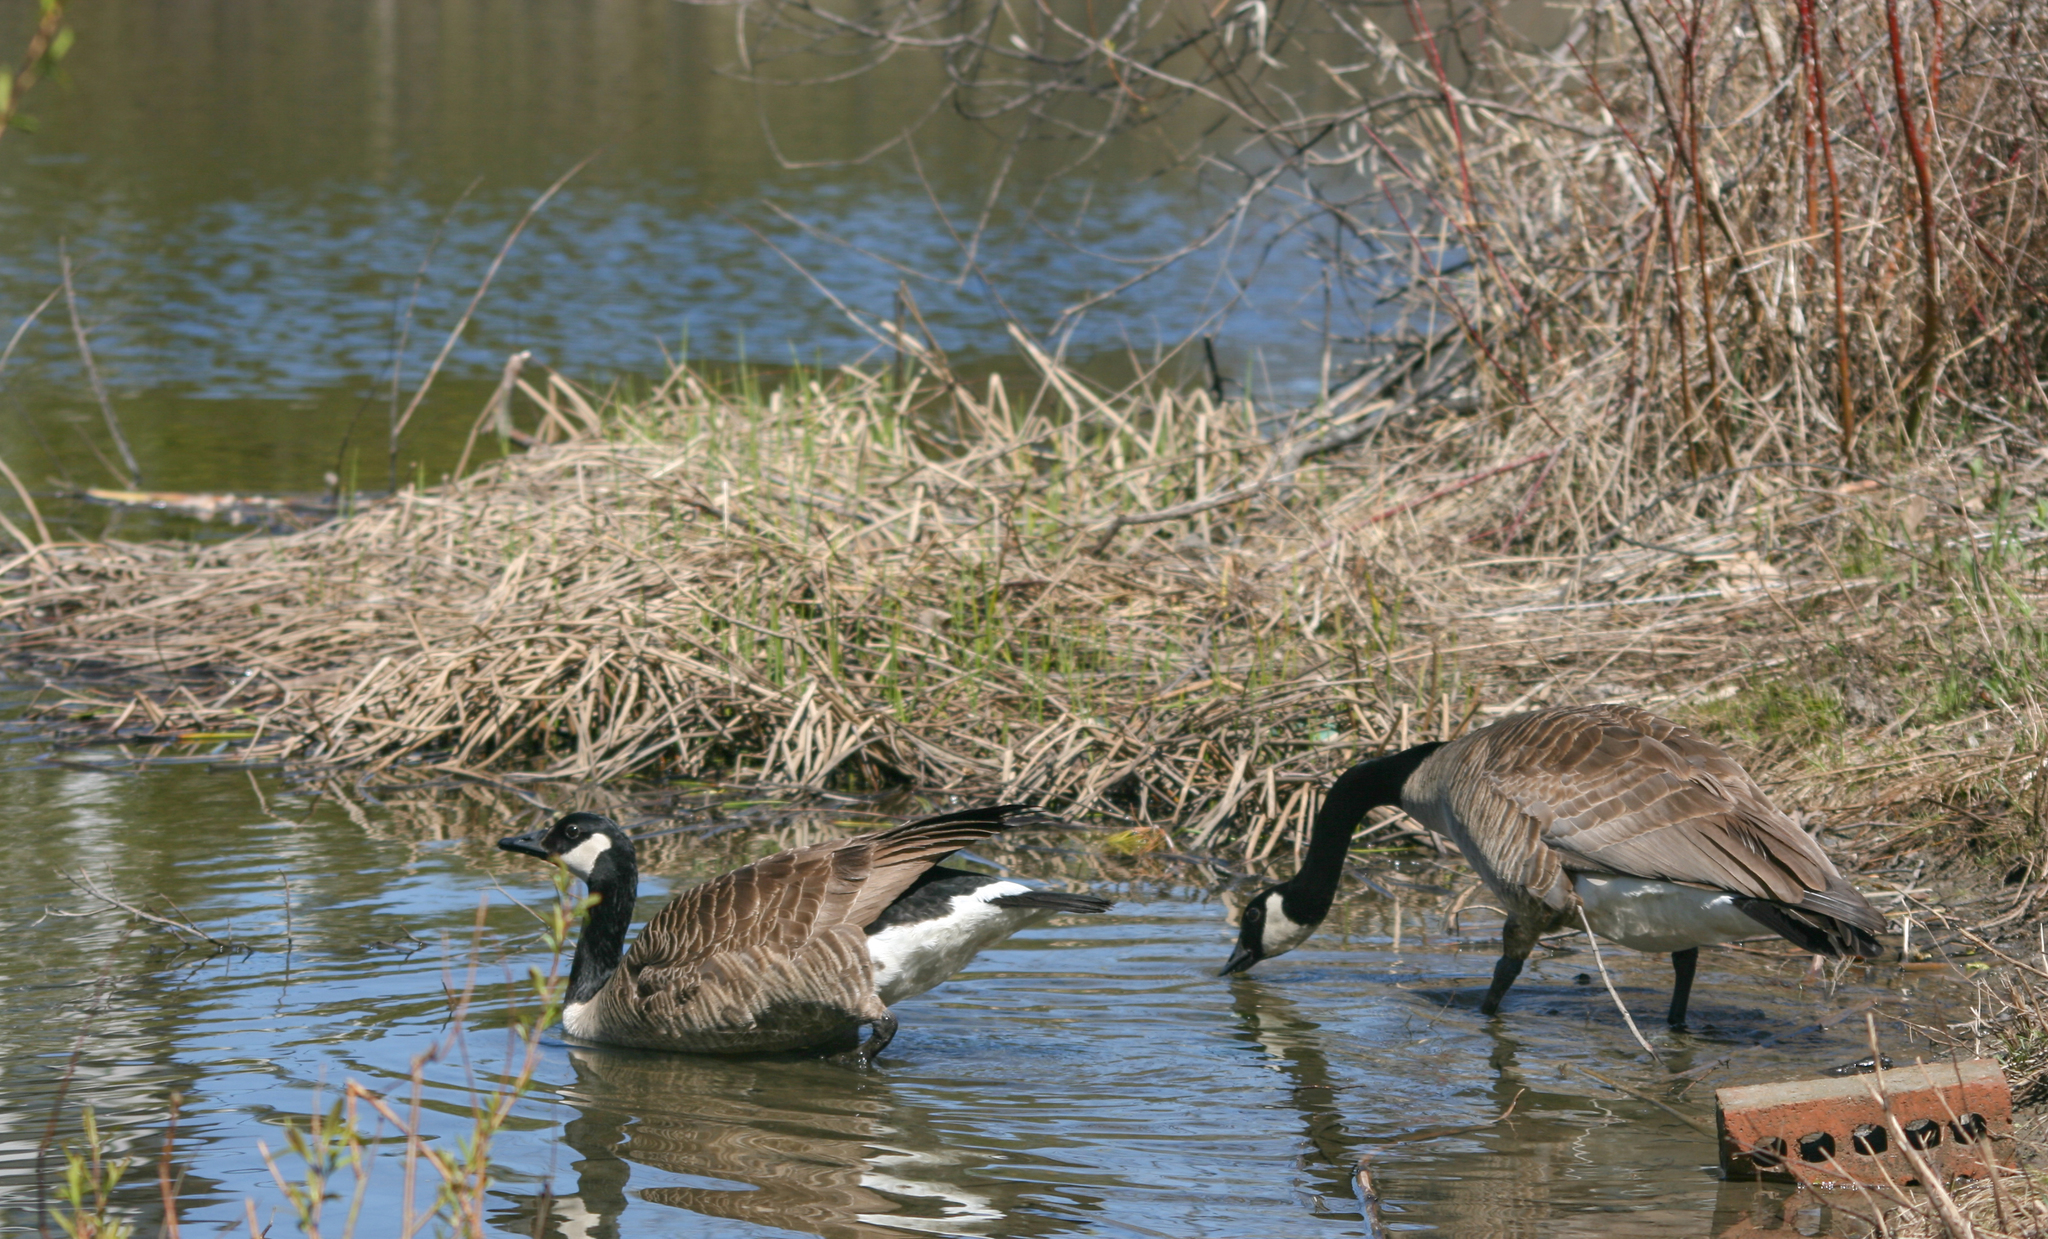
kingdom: Animalia
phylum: Chordata
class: Aves
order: Anseriformes
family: Anatidae
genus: Branta
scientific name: Branta canadensis
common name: Canada goose
